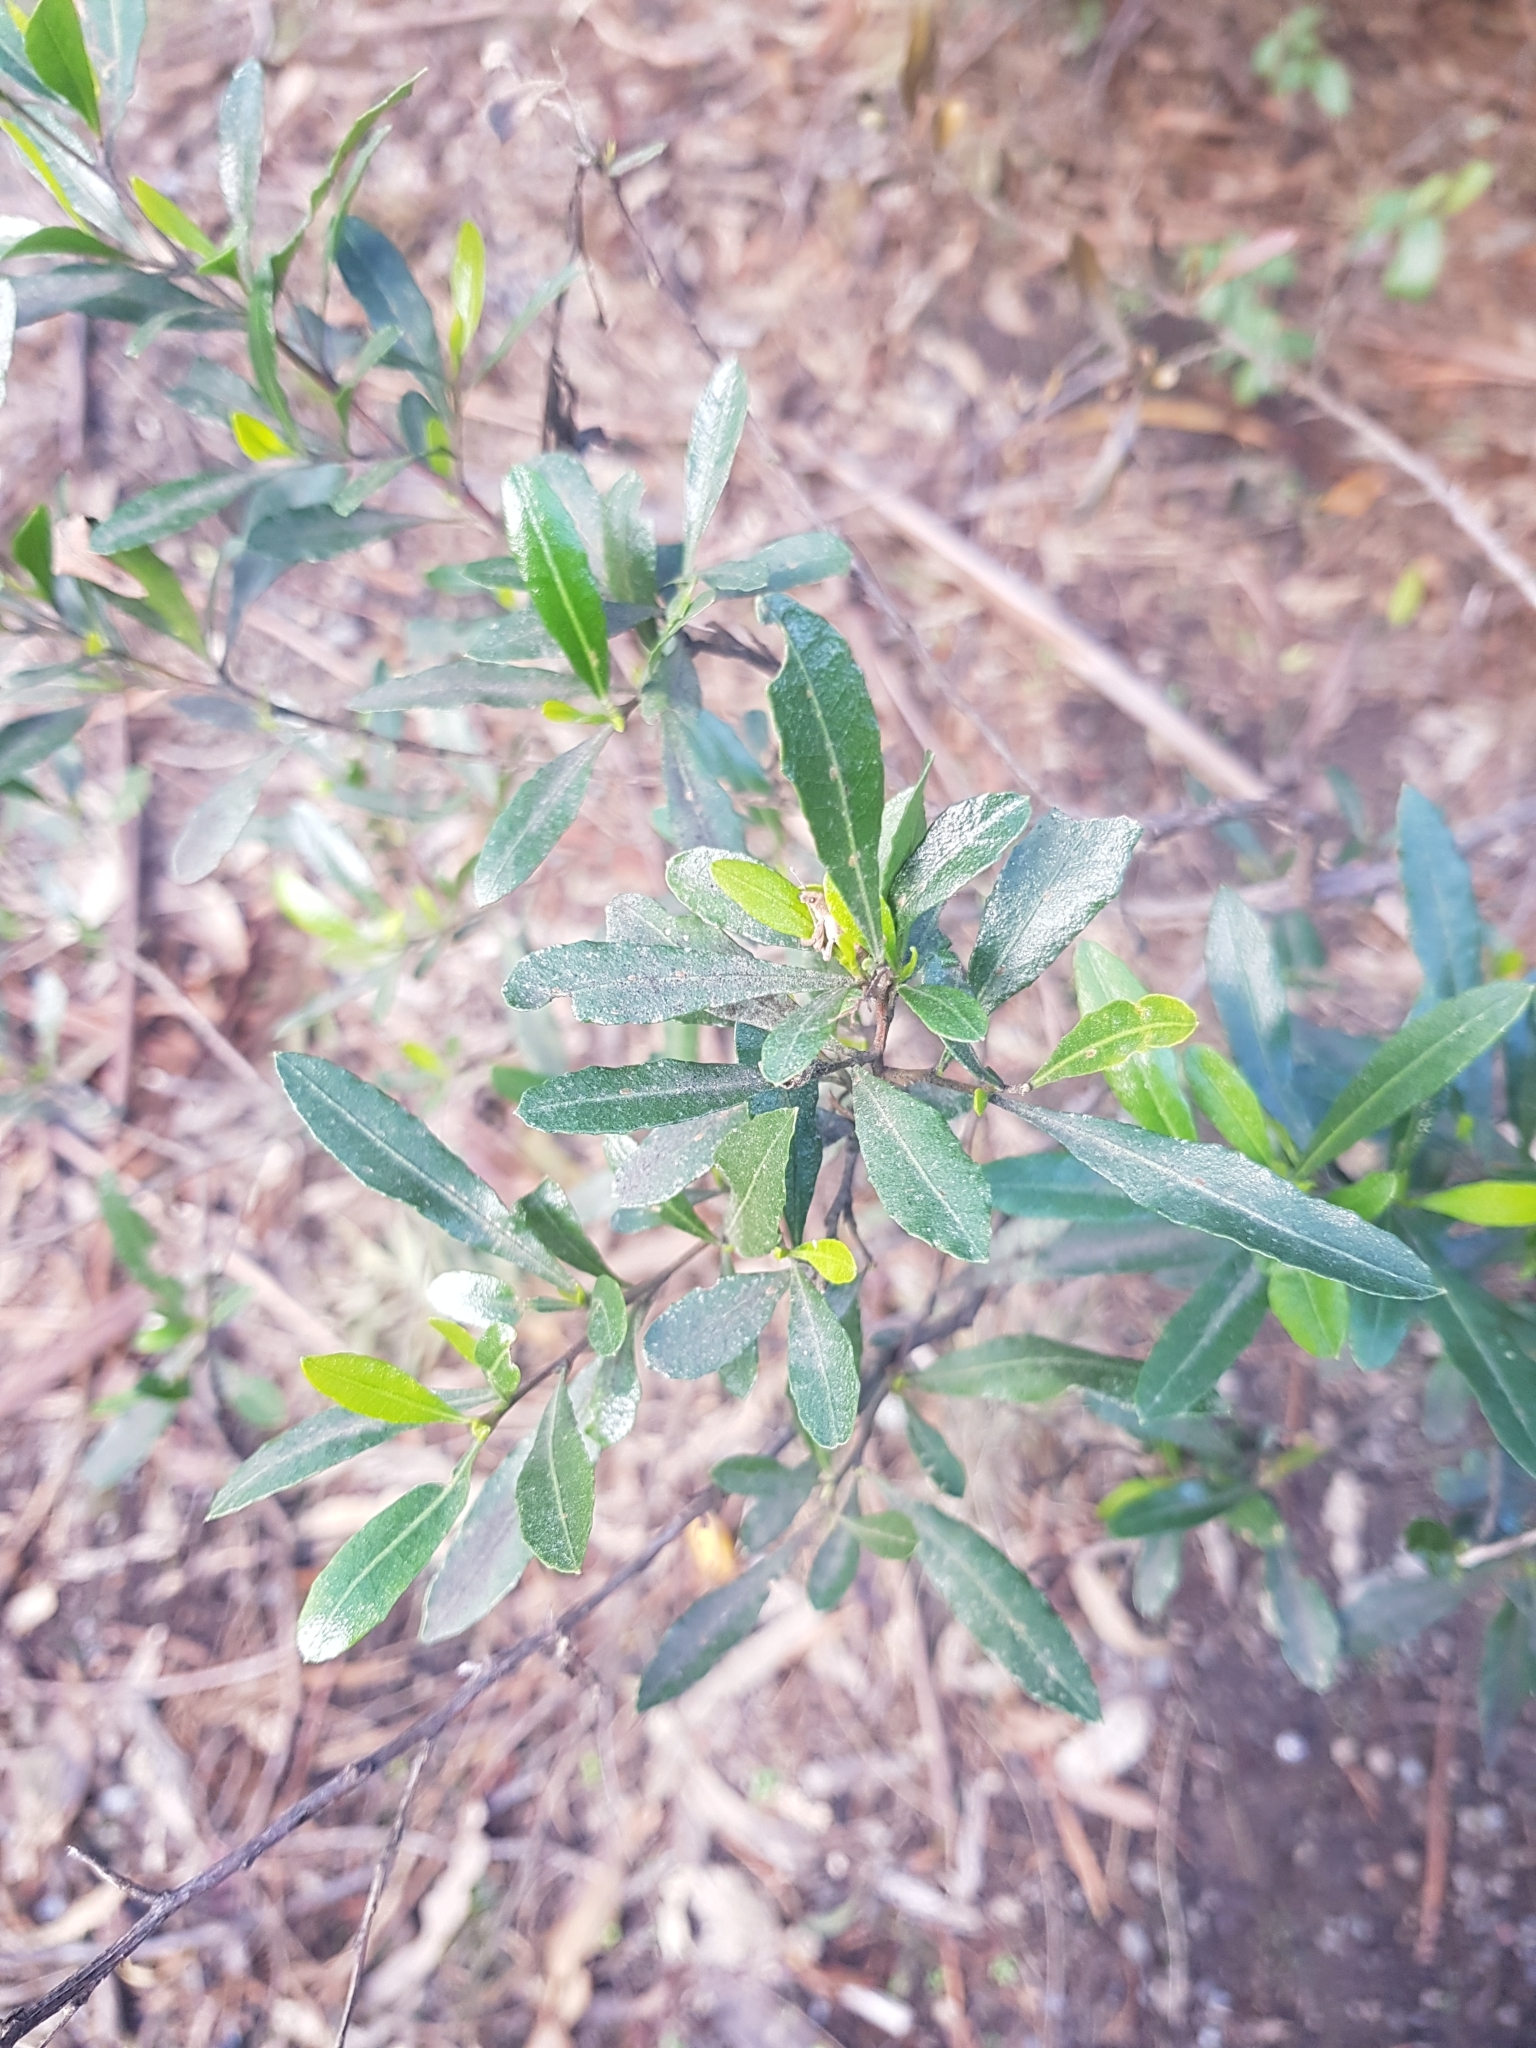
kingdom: Plantae
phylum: Tracheophyta
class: Magnoliopsida
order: Sapindales
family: Sapindaceae
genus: Dodonaea
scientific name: Dodonaea viscosa
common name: Hopbush
